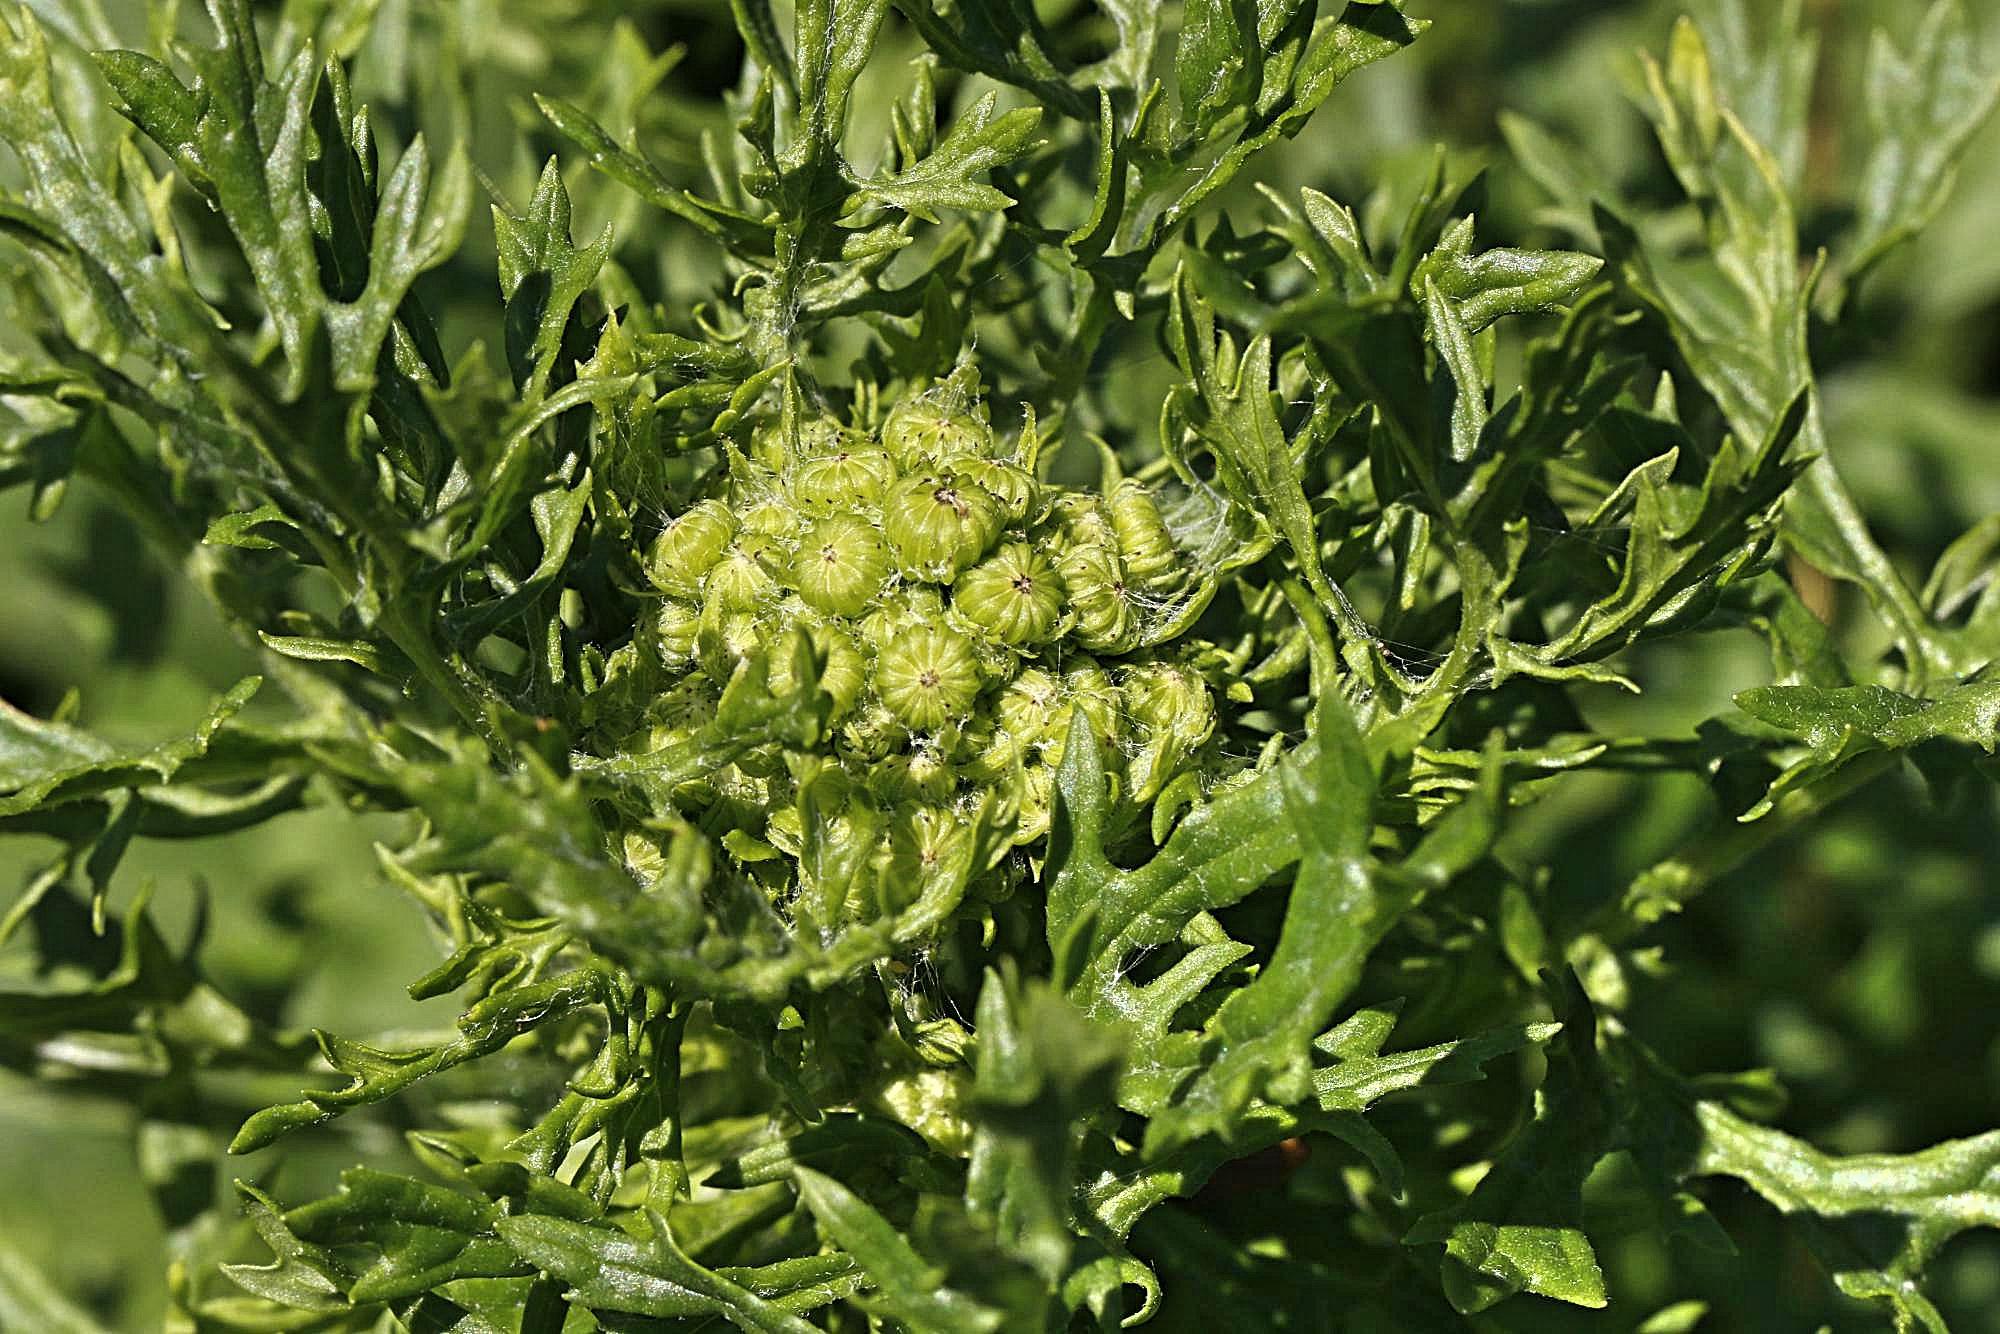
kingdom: Plantae
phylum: Tracheophyta
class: Magnoliopsida
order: Asterales
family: Asteraceae
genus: Jacobaea
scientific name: Jacobaea vulgaris
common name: Stinking willie
